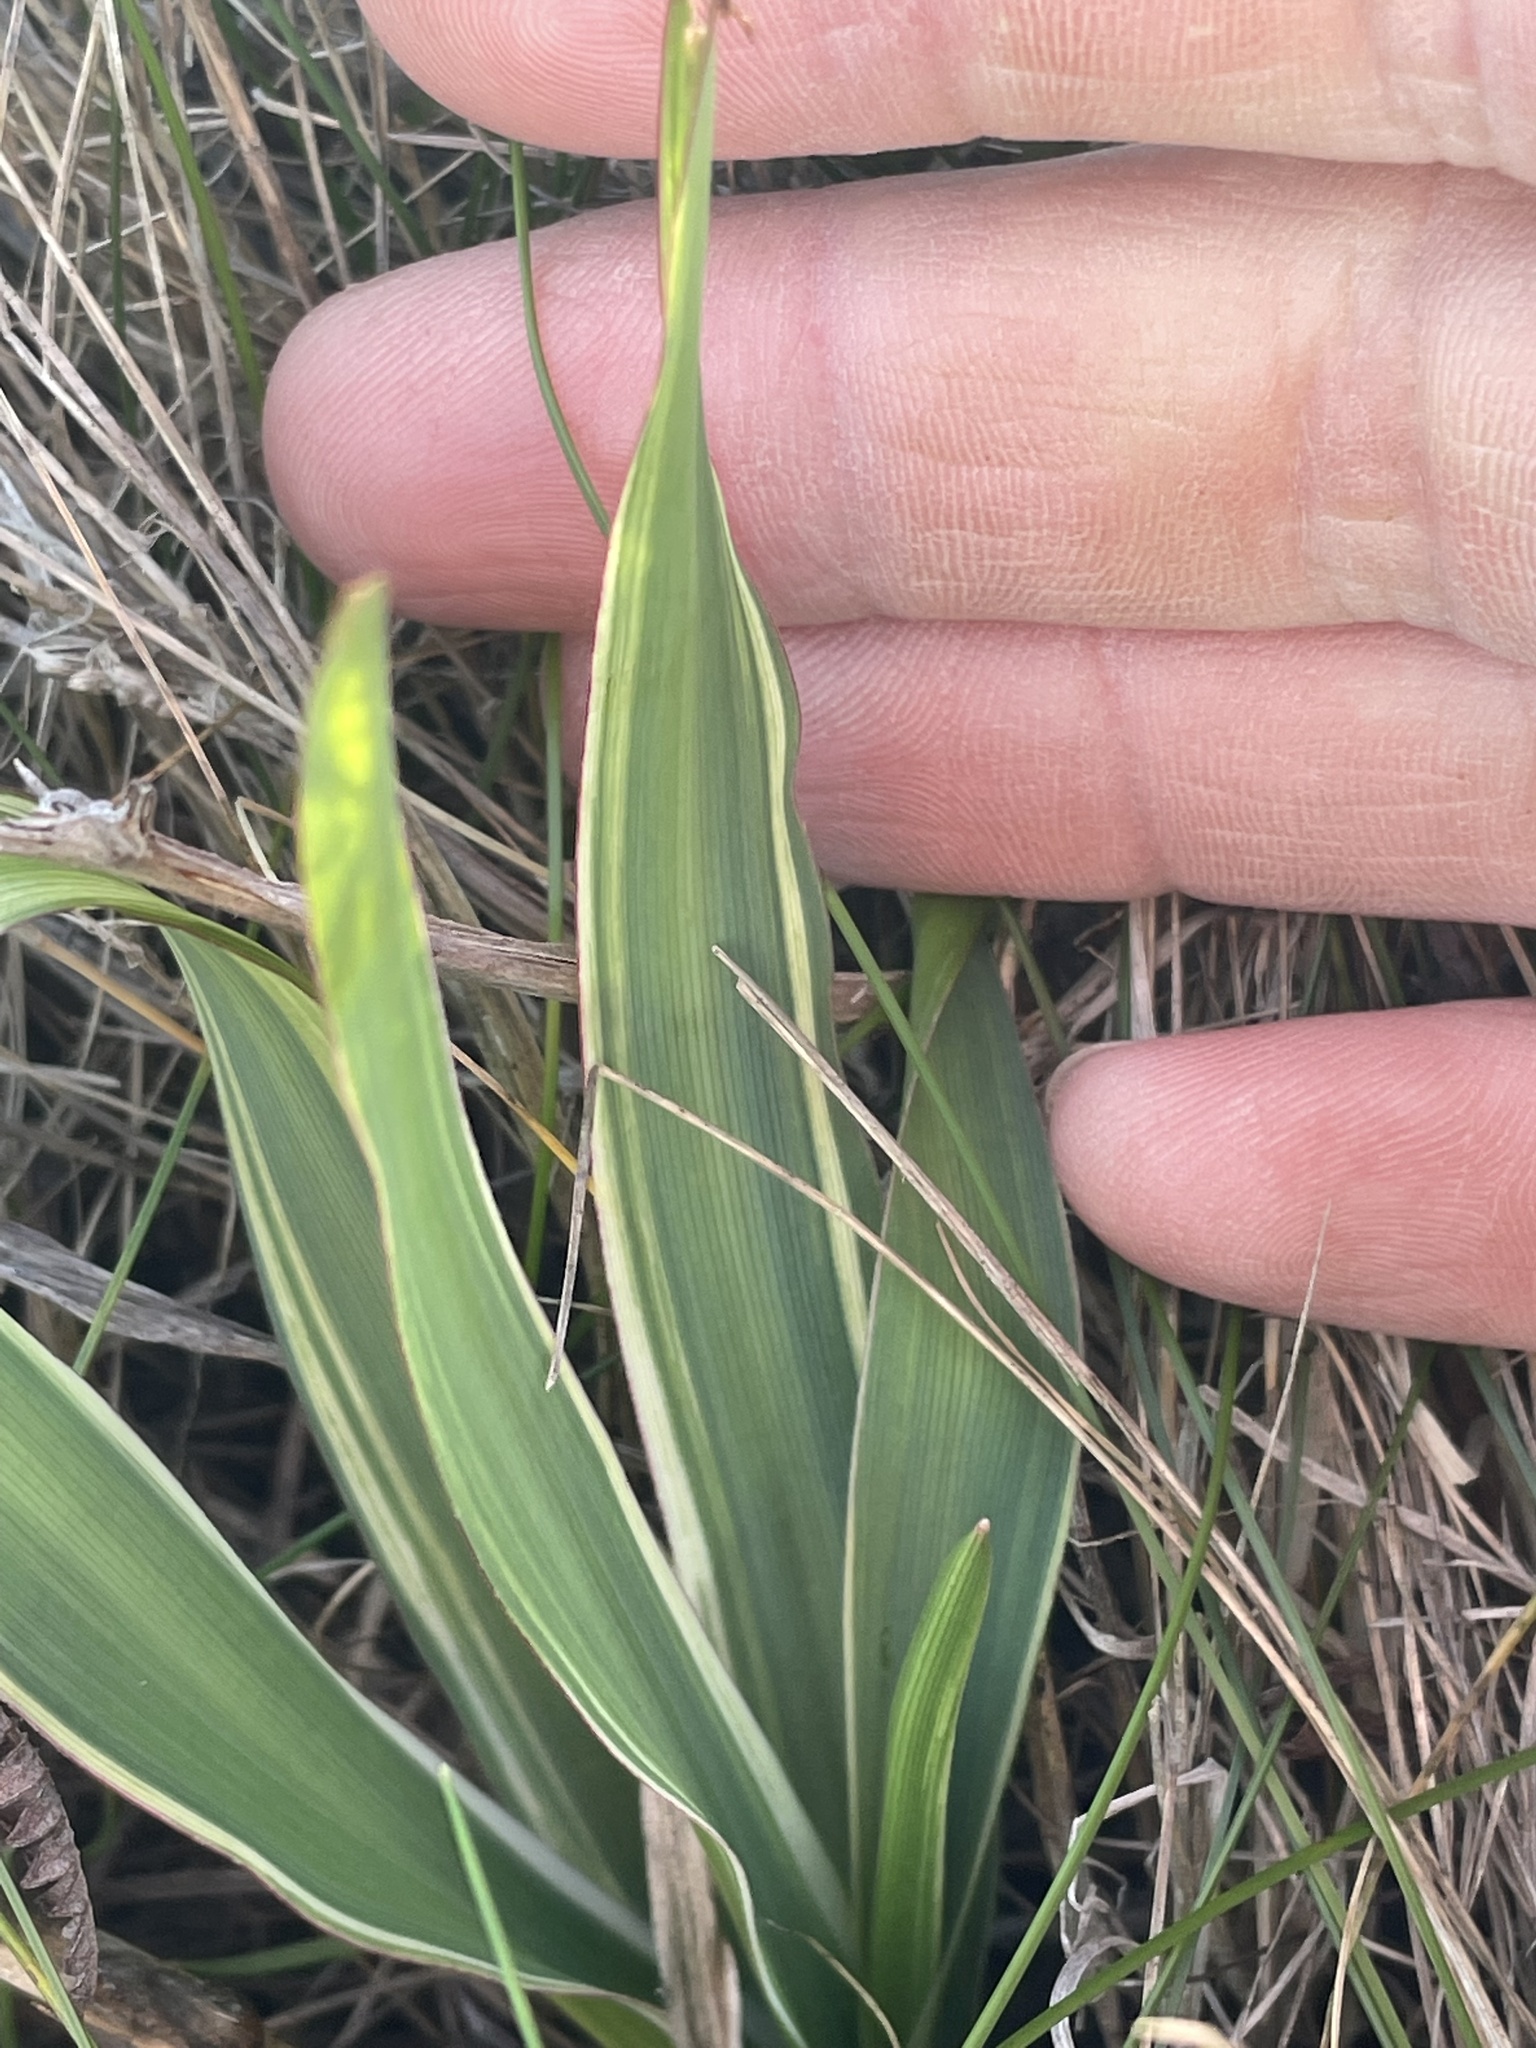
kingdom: Plantae
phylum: Tracheophyta
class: Liliopsida
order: Asparagales
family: Asparagaceae
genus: Chlorogalum
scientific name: Chlorogalum pomeridianum
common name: Amole
